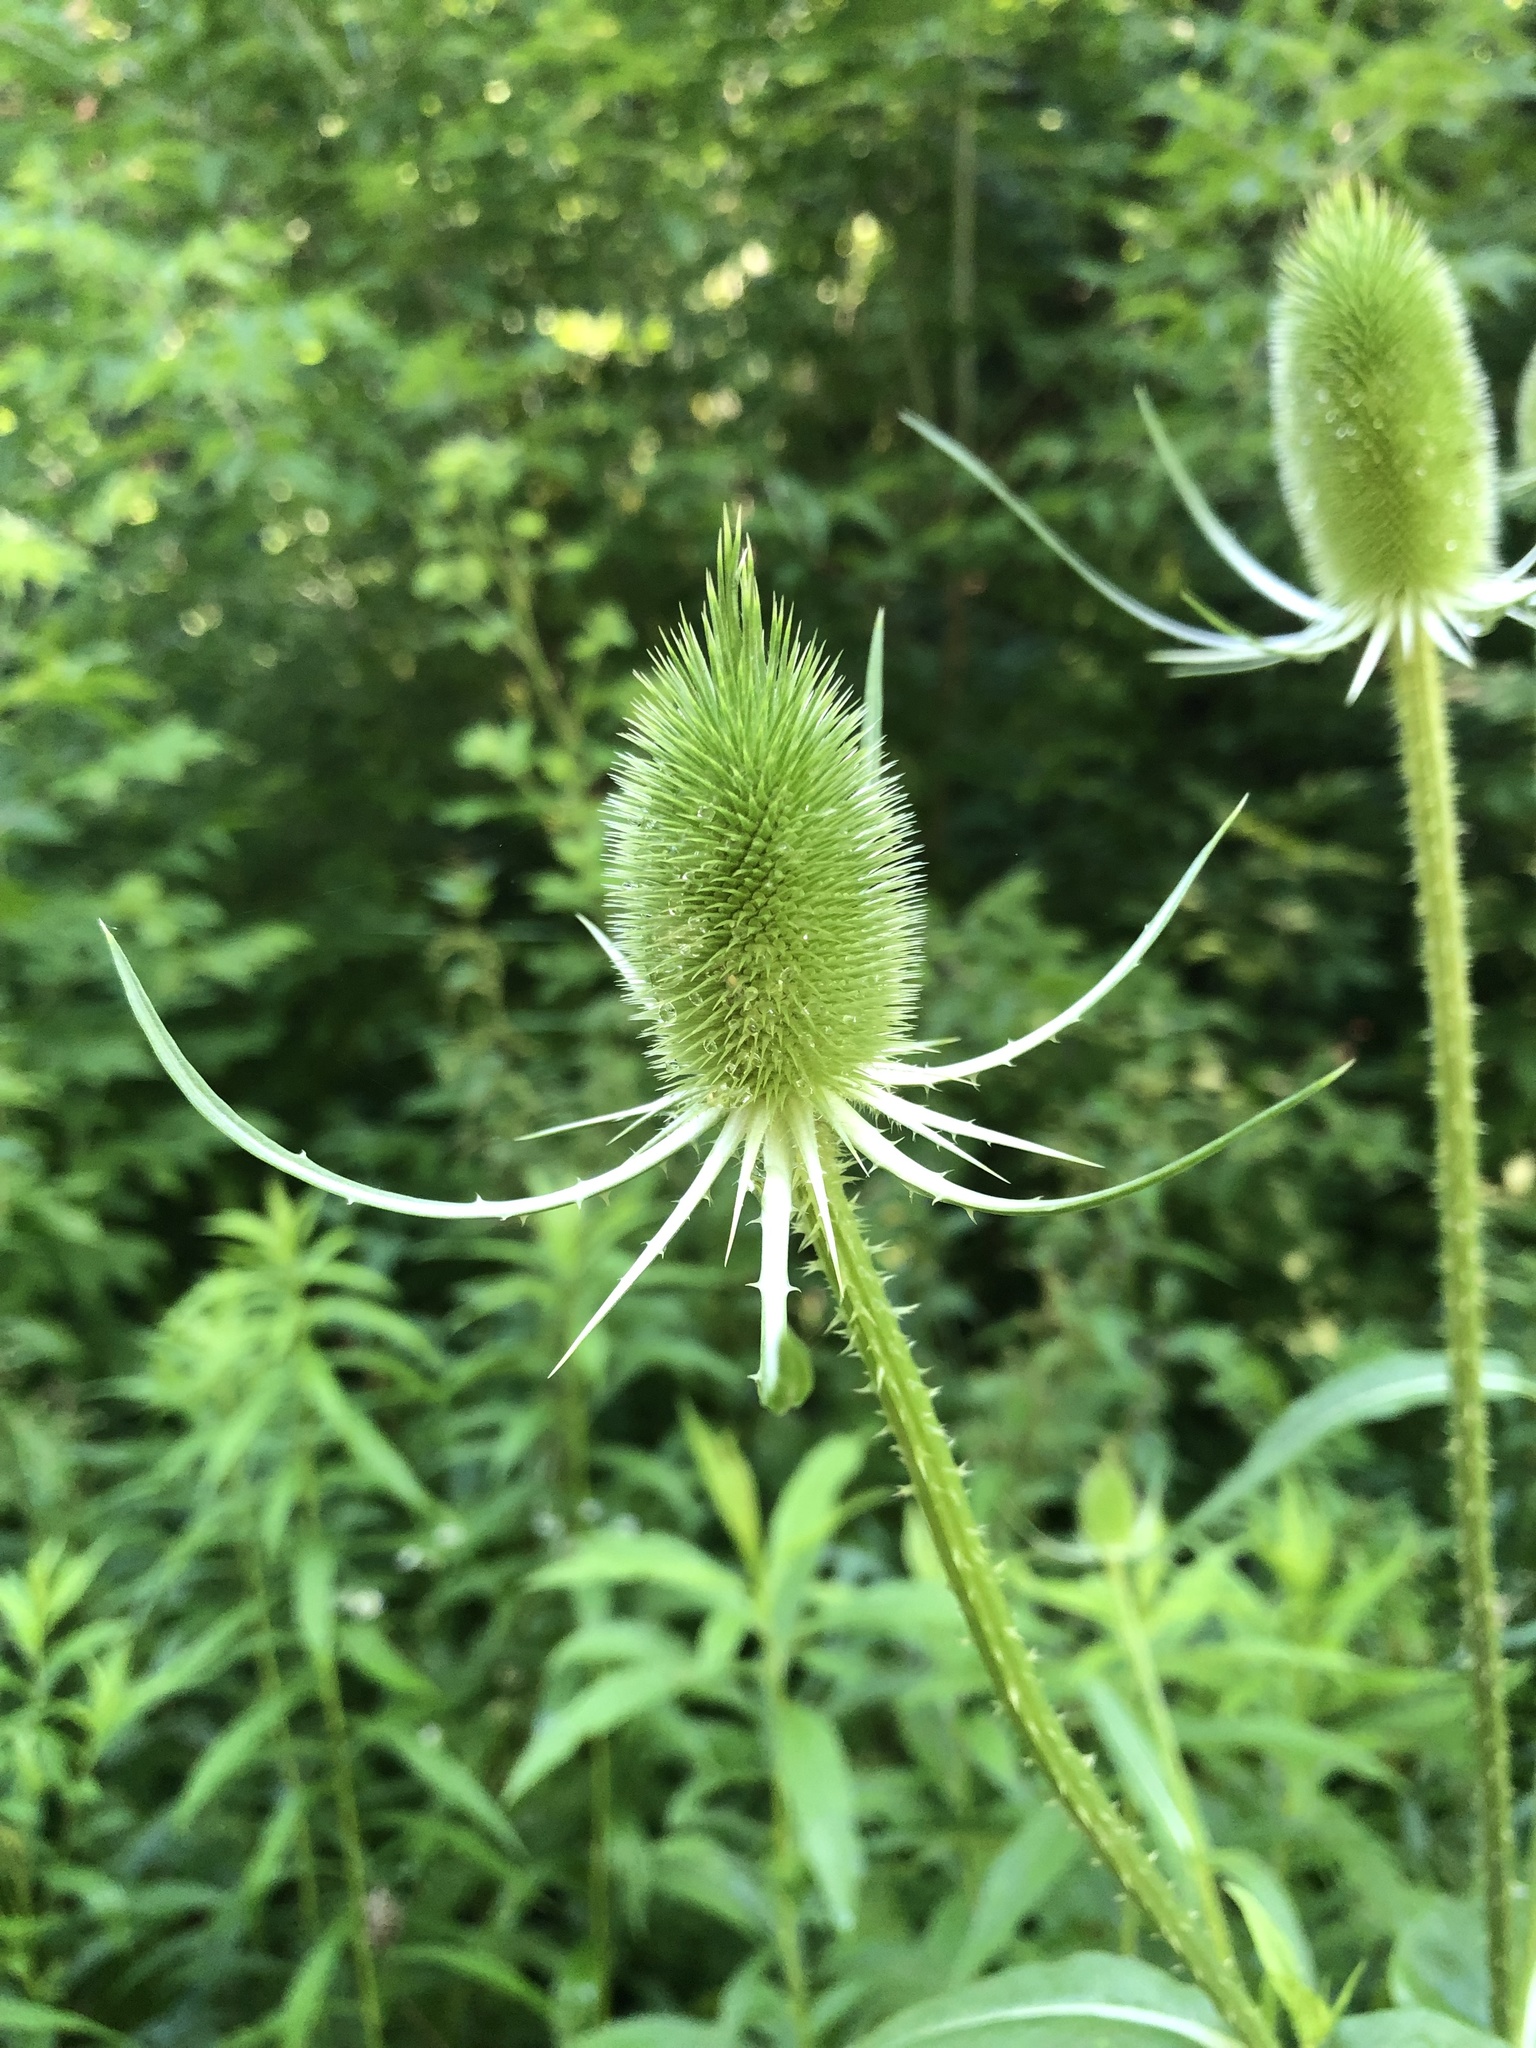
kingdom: Plantae
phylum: Tracheophyta
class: Magnoliopsida
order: Dipsacales
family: Caprifoliaceae
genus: Dipsacus
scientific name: Dipsacus fullonum
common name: Teasel
